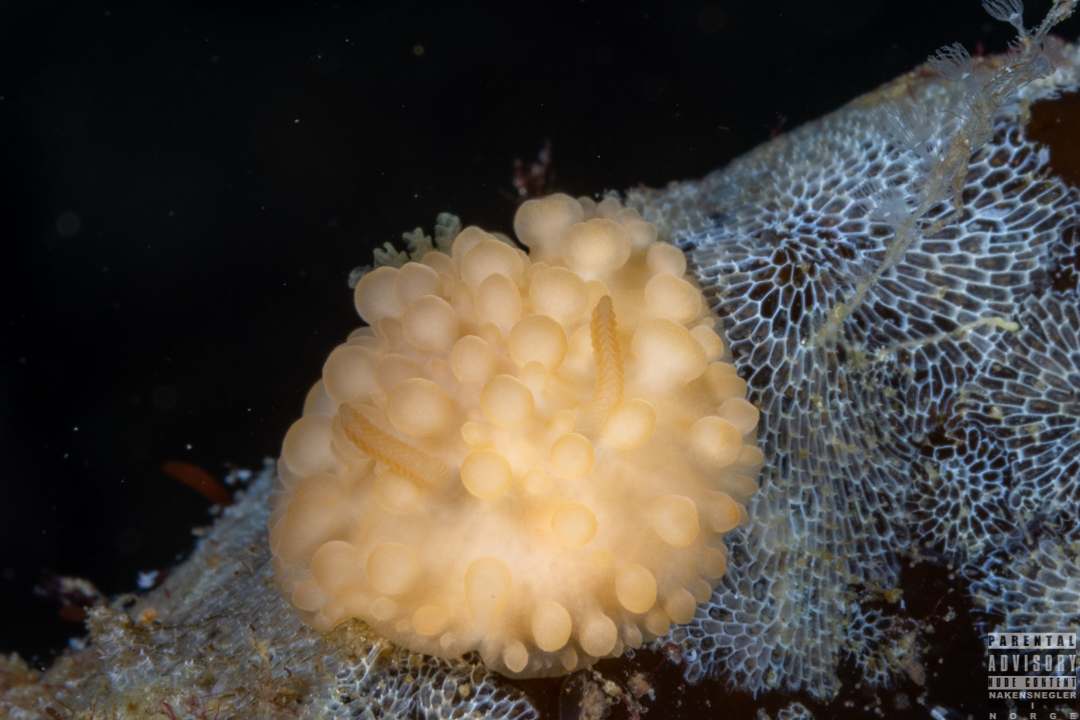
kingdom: Animalia
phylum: Mollusca
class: Gastropoda
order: Nudibranchia
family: Onchidorididae
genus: Adalaria
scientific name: Adalaria loveni
